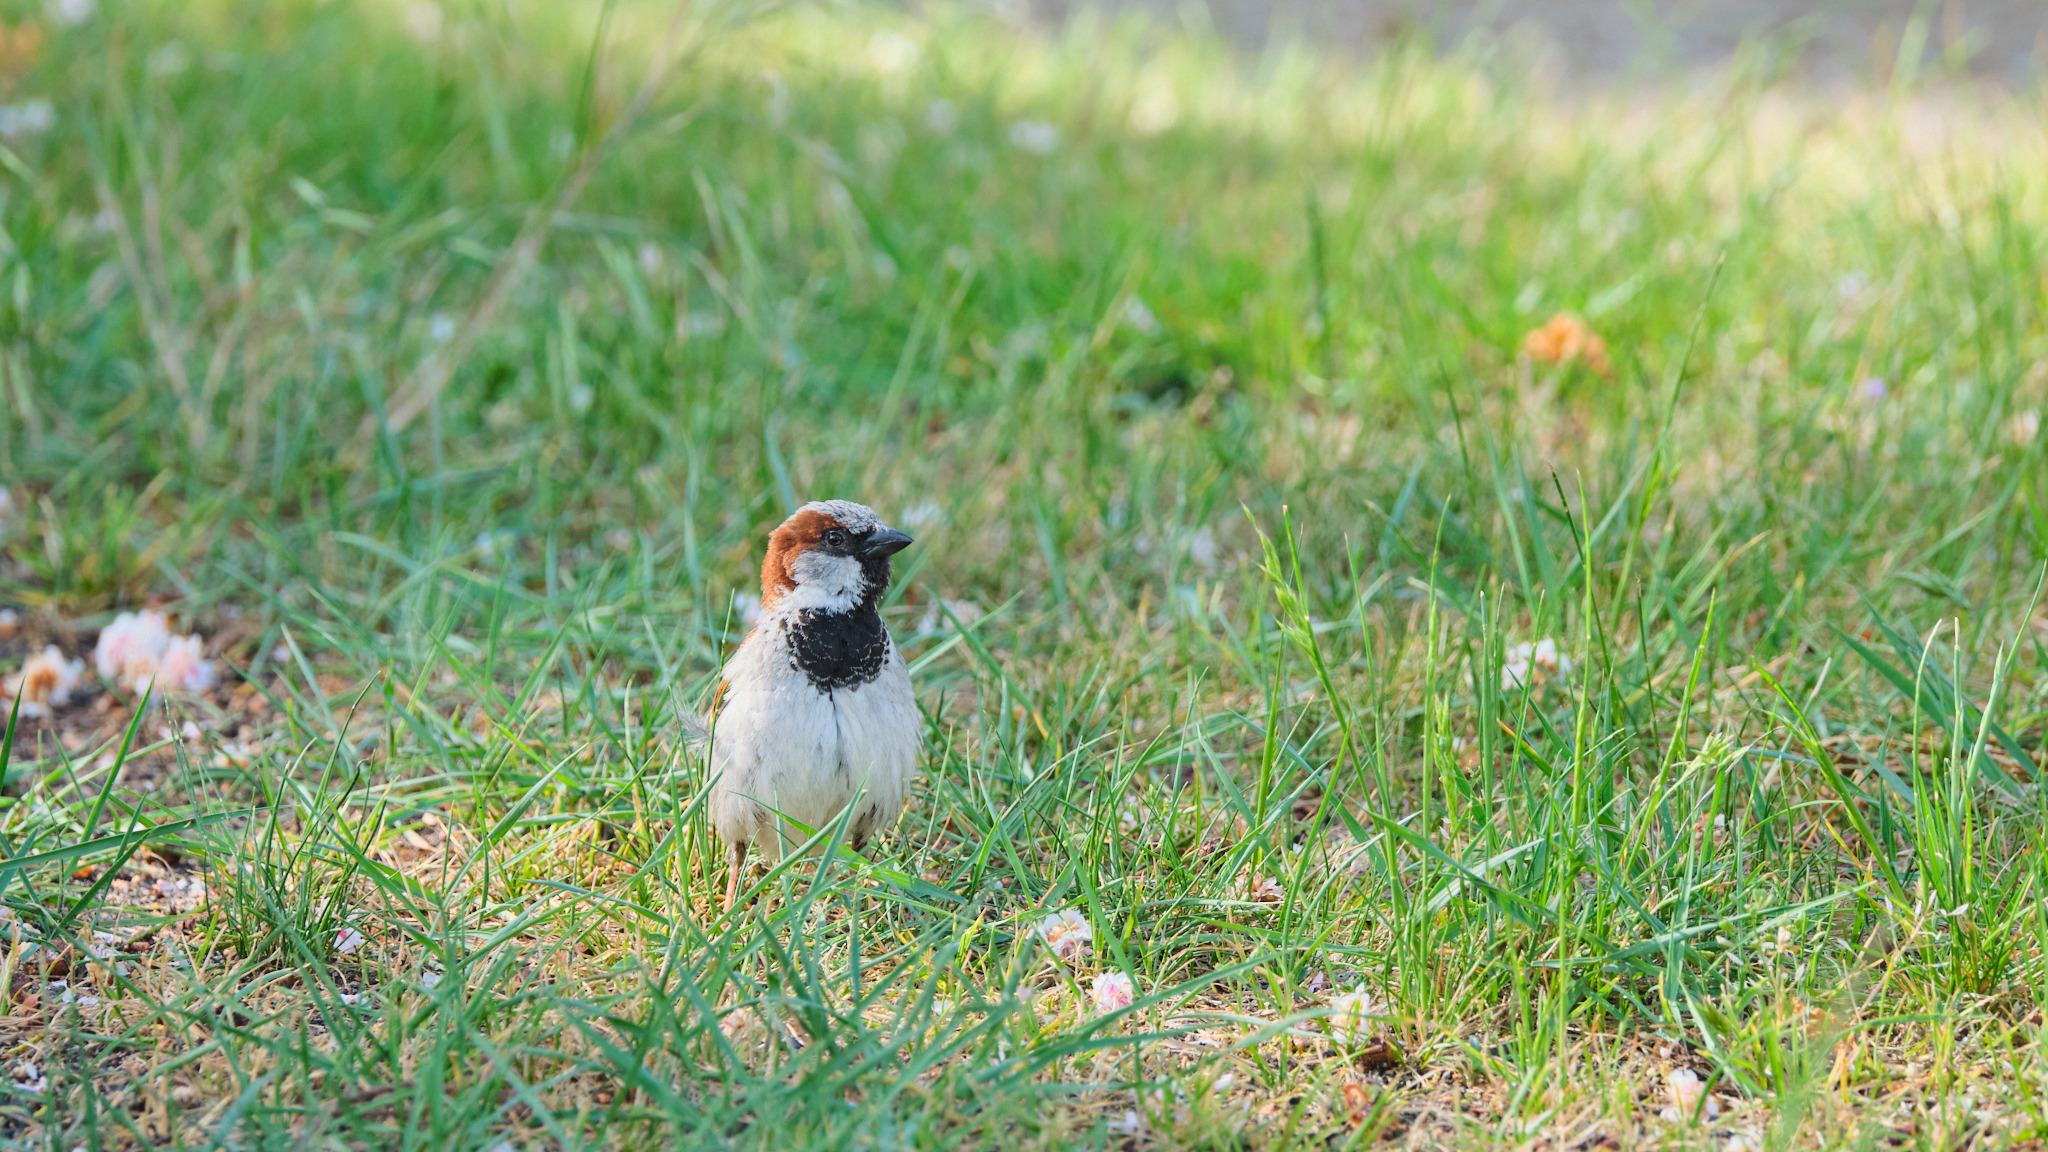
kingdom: Animalia
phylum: Chordata
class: Aves
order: Passeriformes
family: Passeridae
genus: Passer
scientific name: Passer domesticus
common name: House sparrow
